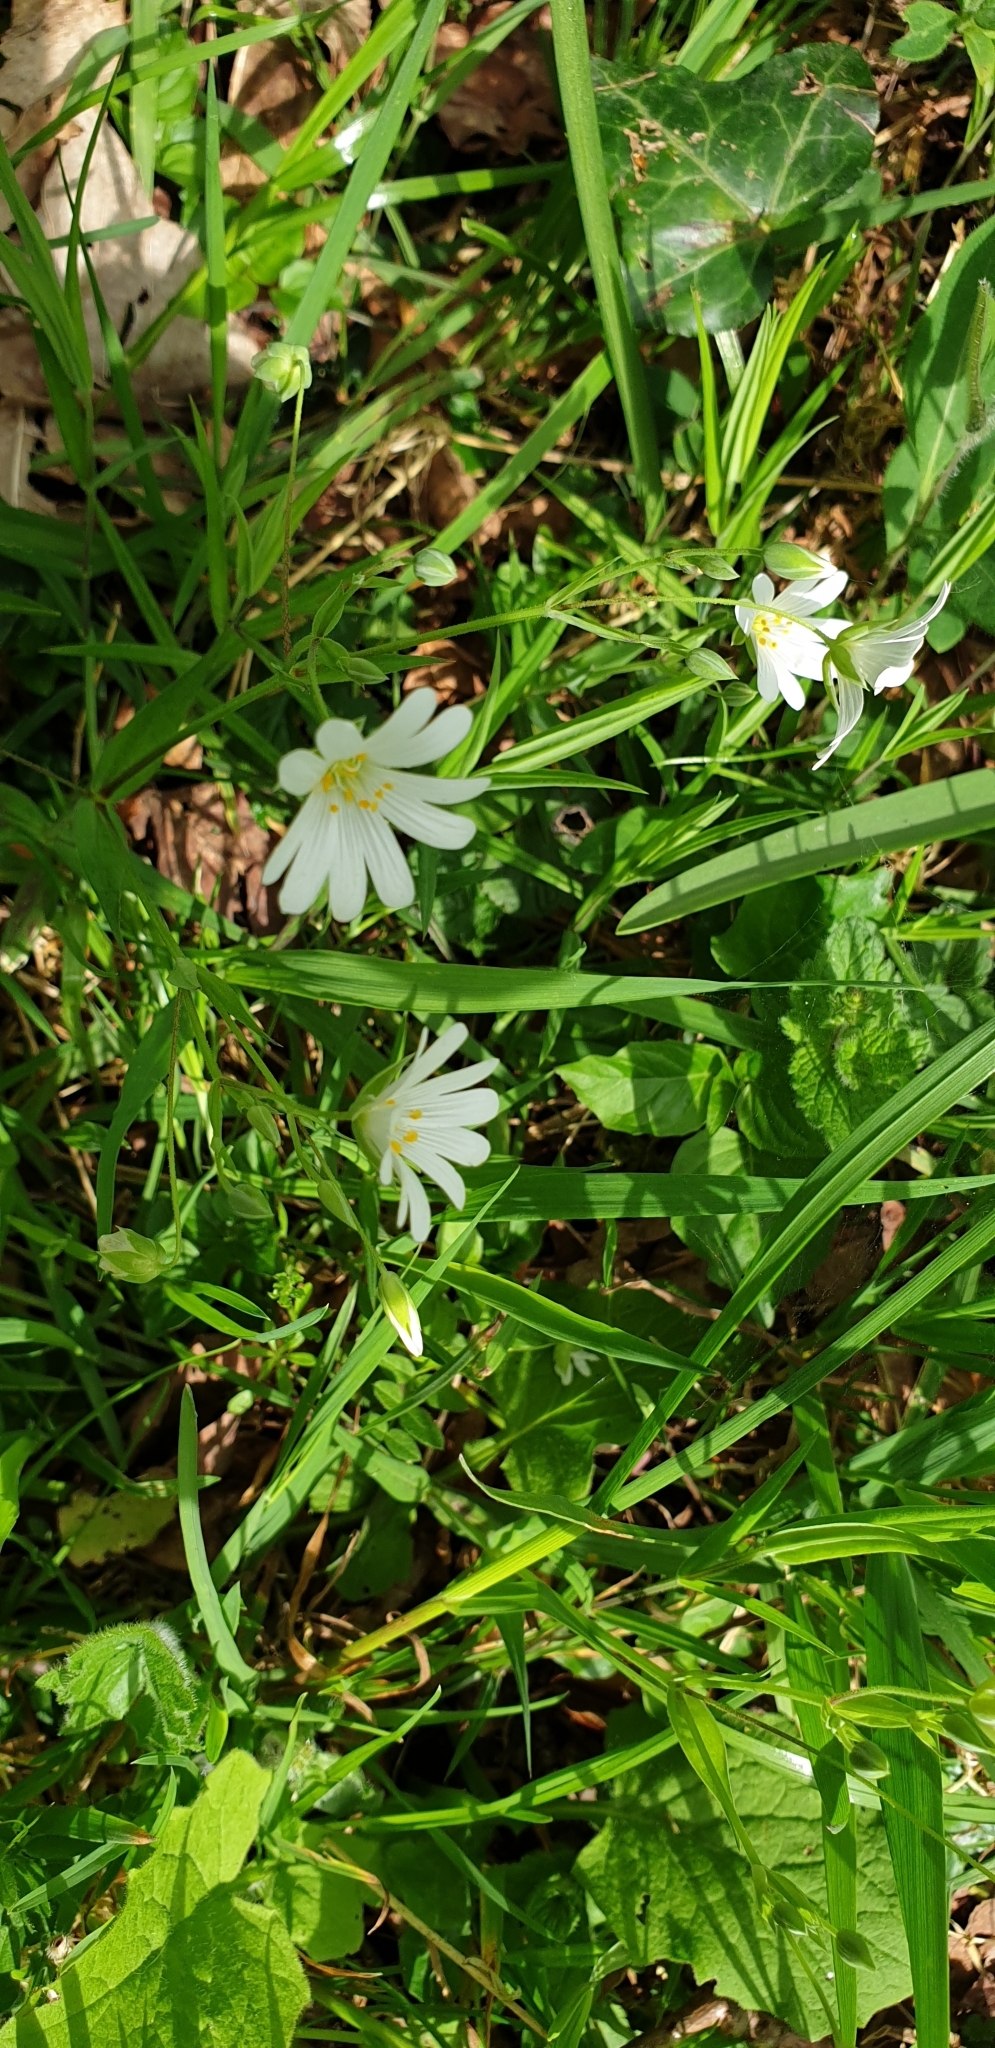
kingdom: Plantae
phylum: Tracheophyta
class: Magnoliopsida
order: Caryophyllales
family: Caryophyllaceae
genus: Rabelera
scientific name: Rabelera holostea
